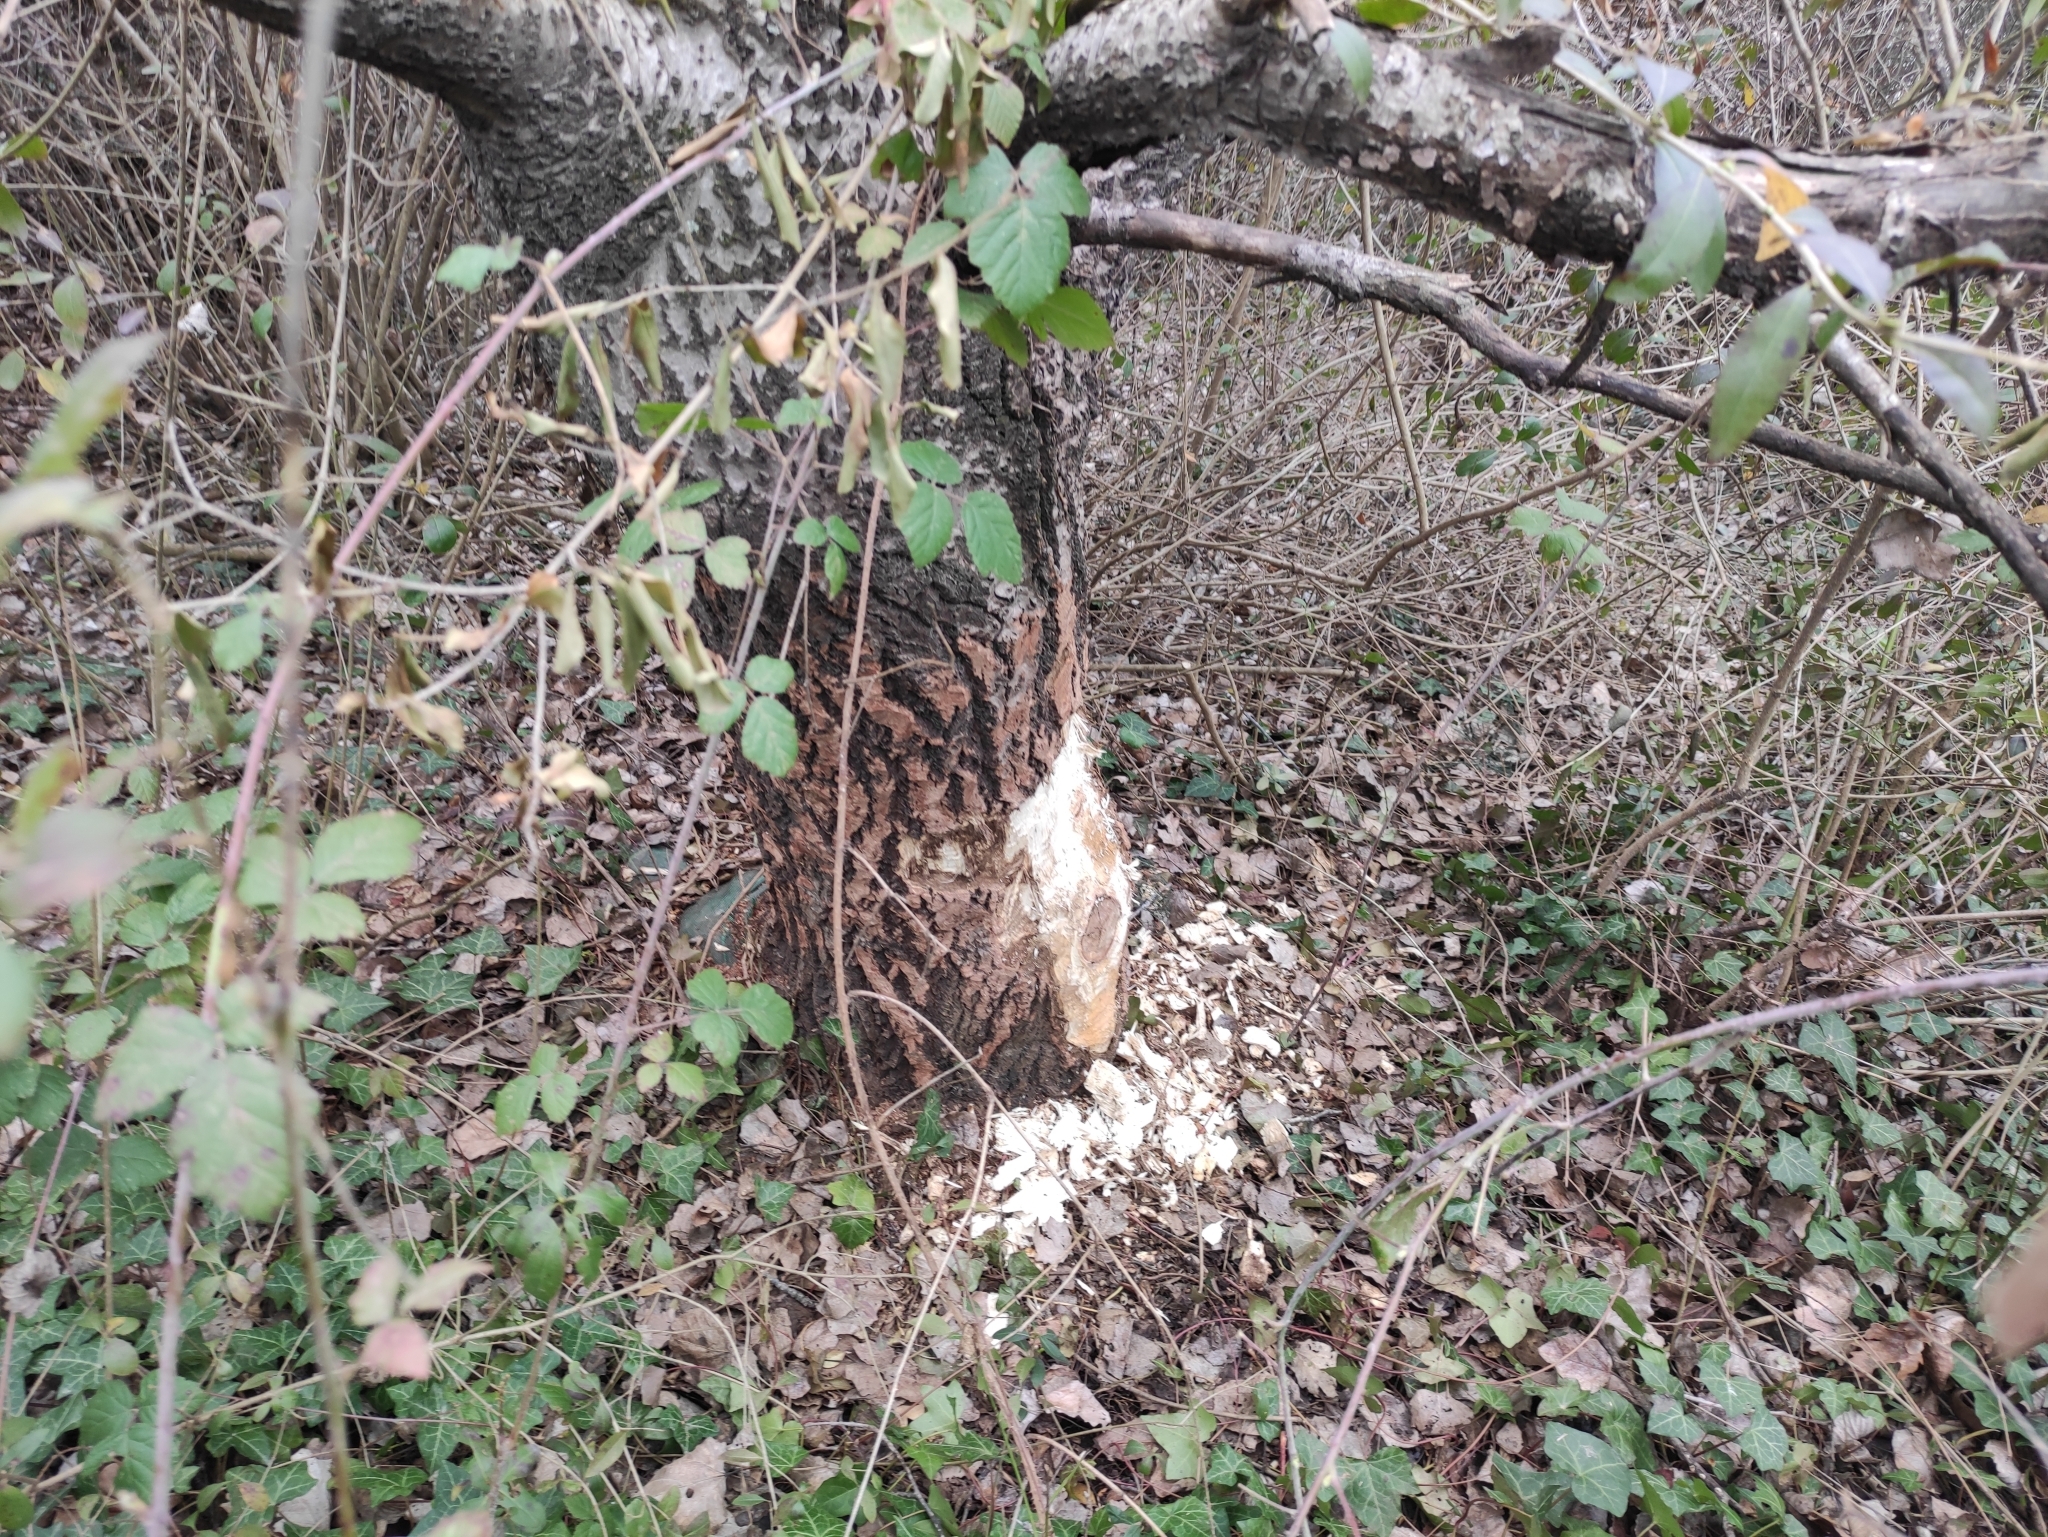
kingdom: Animalia
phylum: Chordata
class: Mammalia
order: Rodentia
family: Castoridae
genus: Castor
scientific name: Castor fiber
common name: Eurasian beaver
